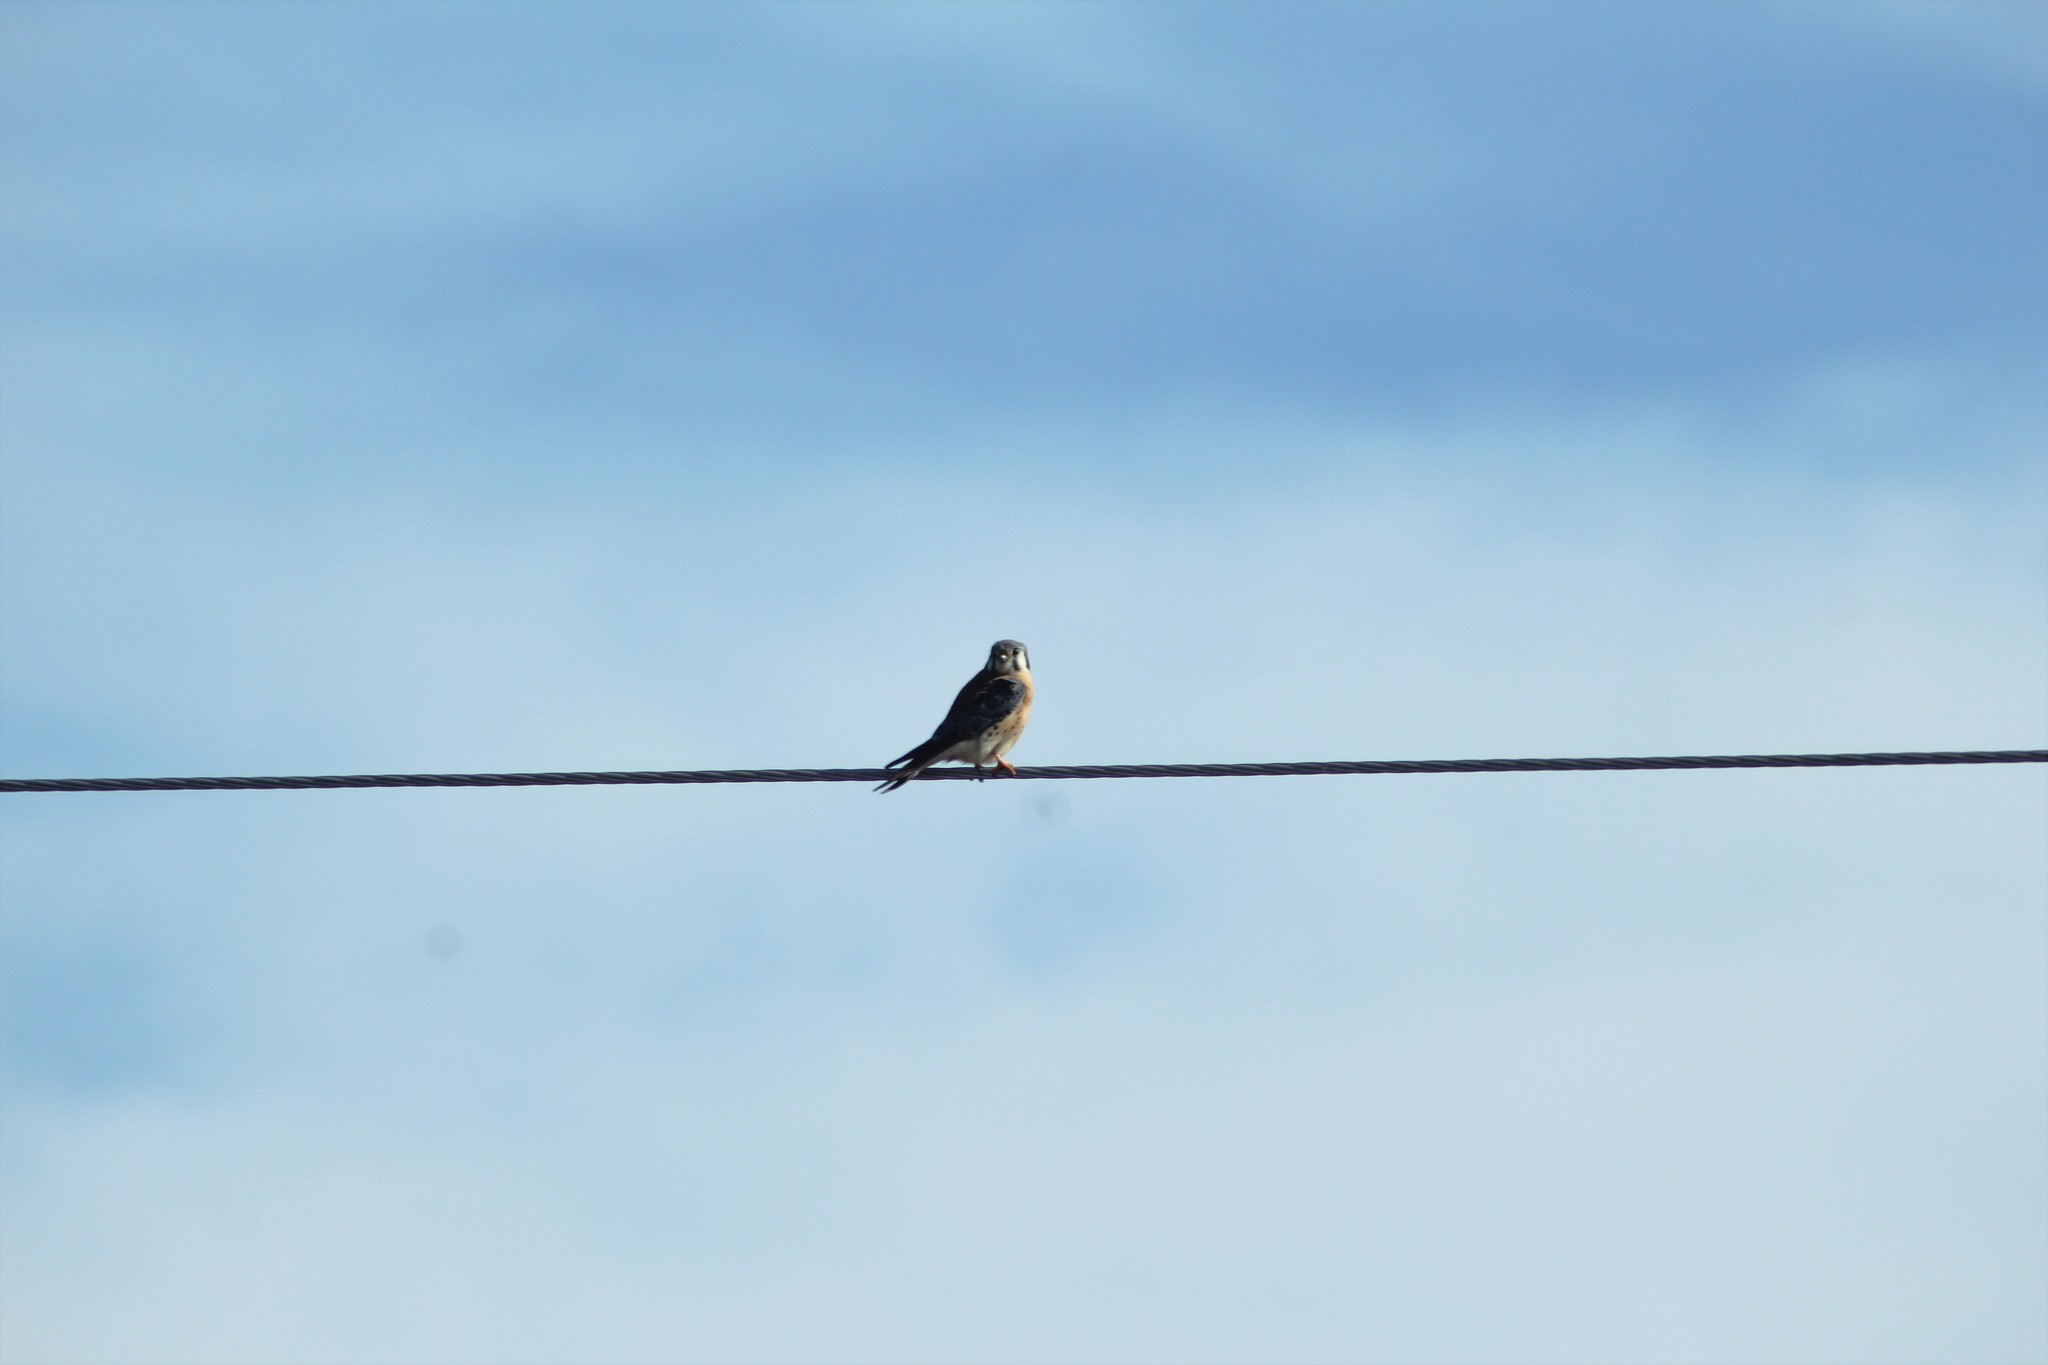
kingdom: Animalia
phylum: Chordata
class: Aves
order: Falconiformes
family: Falconidae
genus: Falco
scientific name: Falco sparverius
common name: American kestrel
